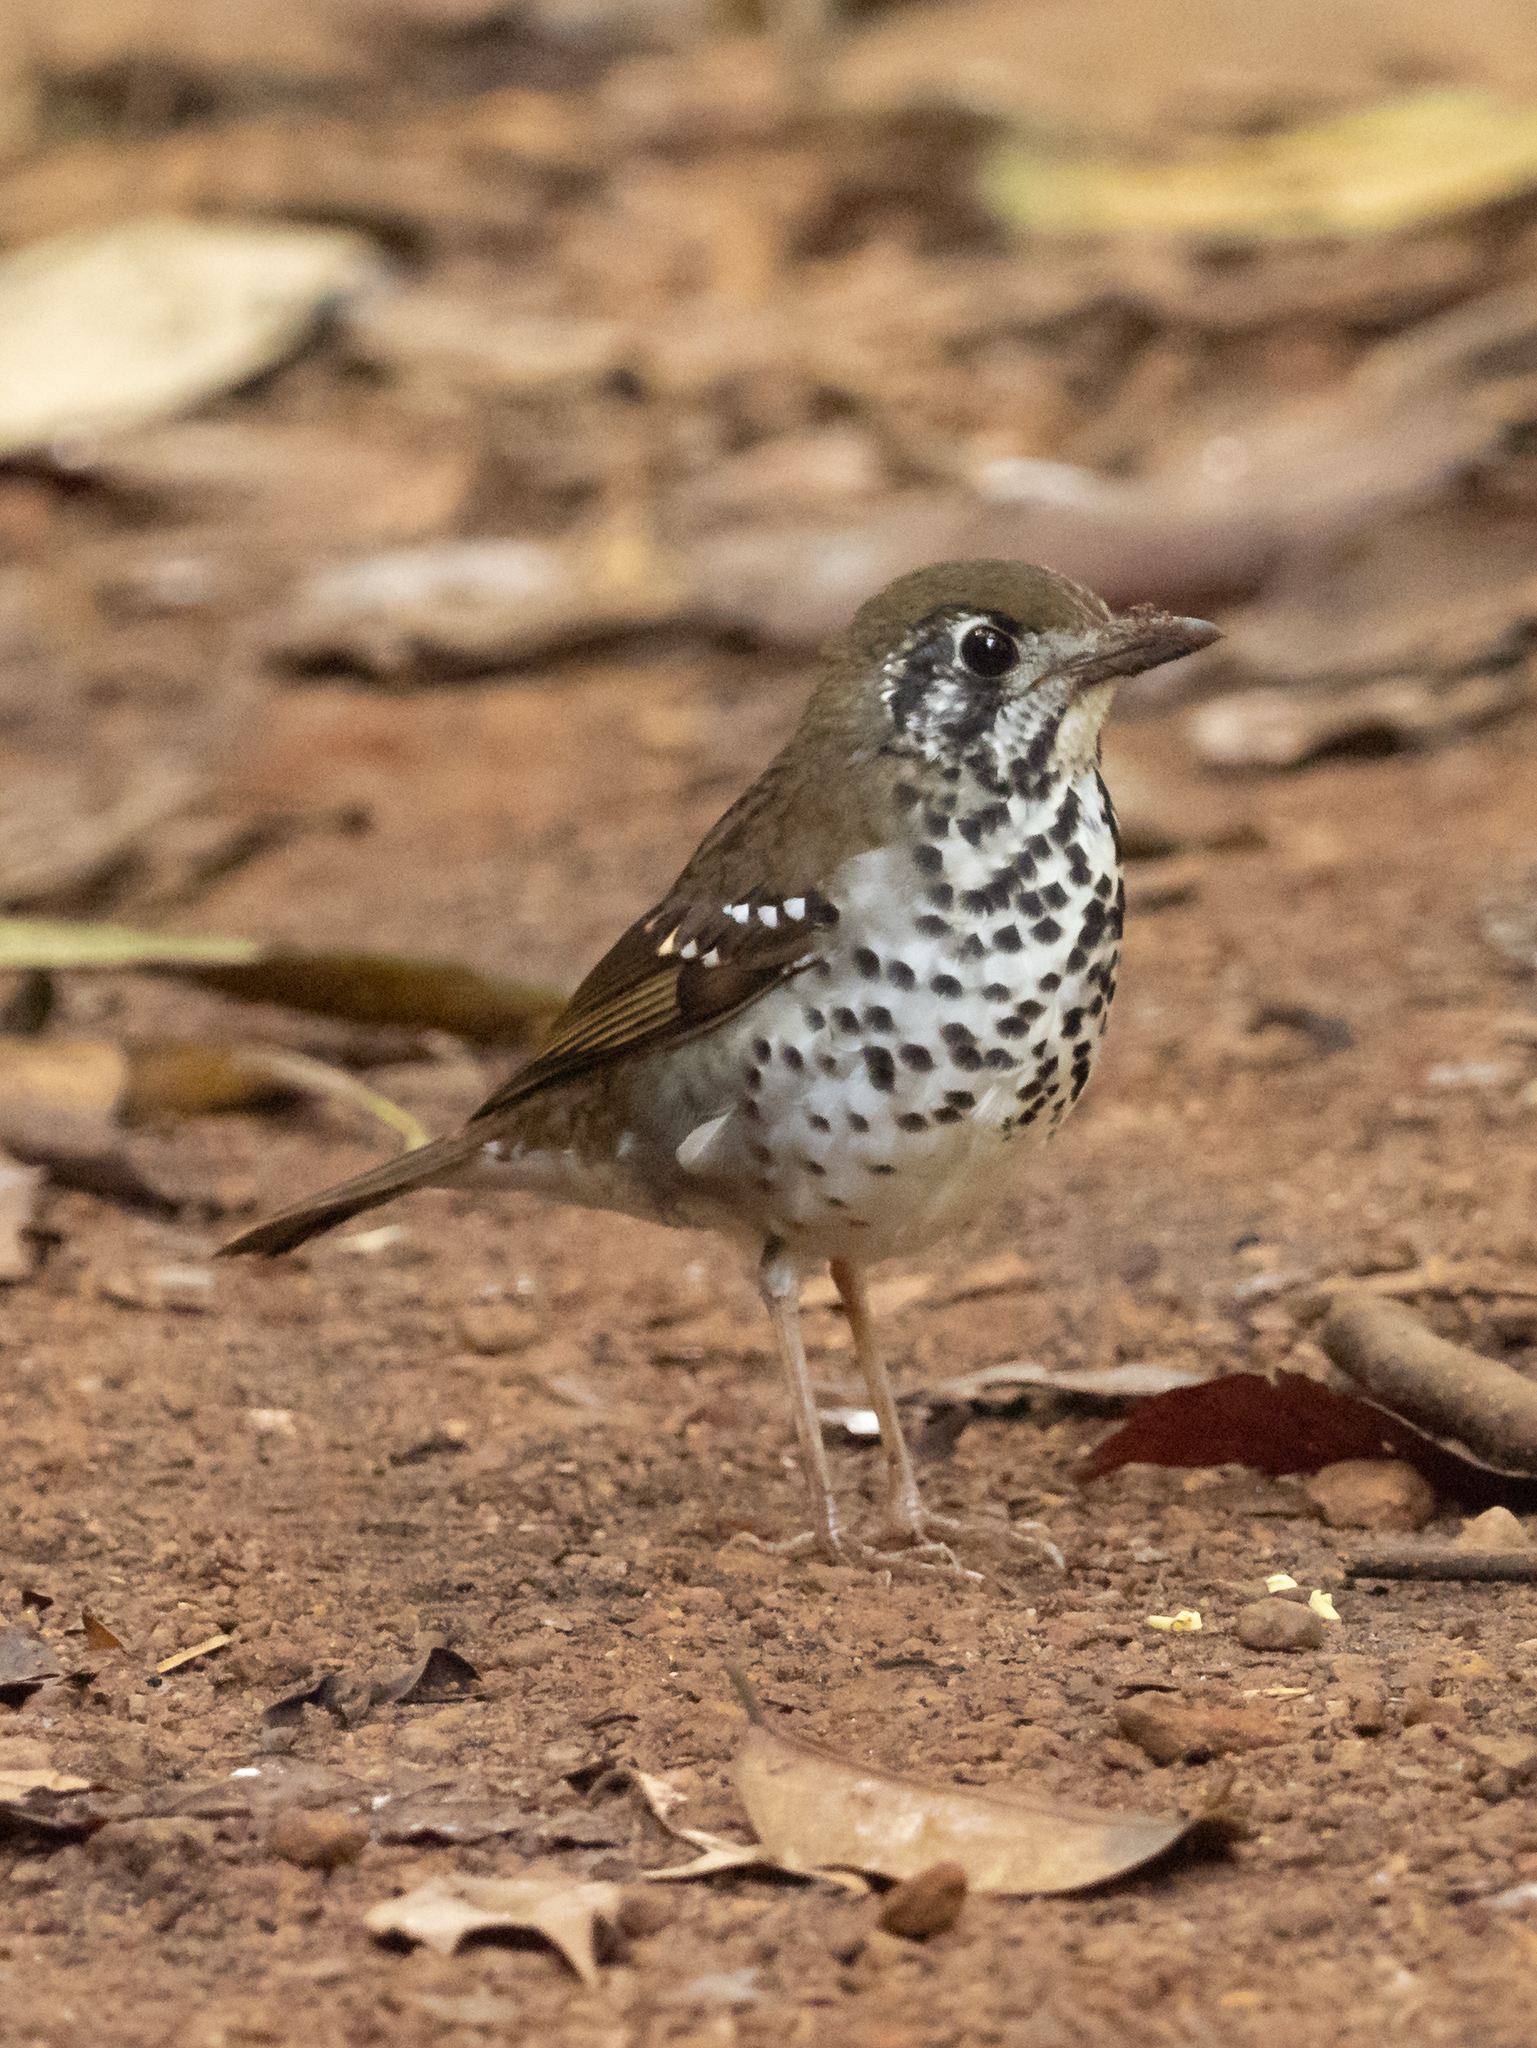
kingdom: Animalia
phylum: Chordata
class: Aves
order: Passeriformes
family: Turdidae
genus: Geokichla
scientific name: Geokichla spiloptera
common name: Spot-winged thrush
